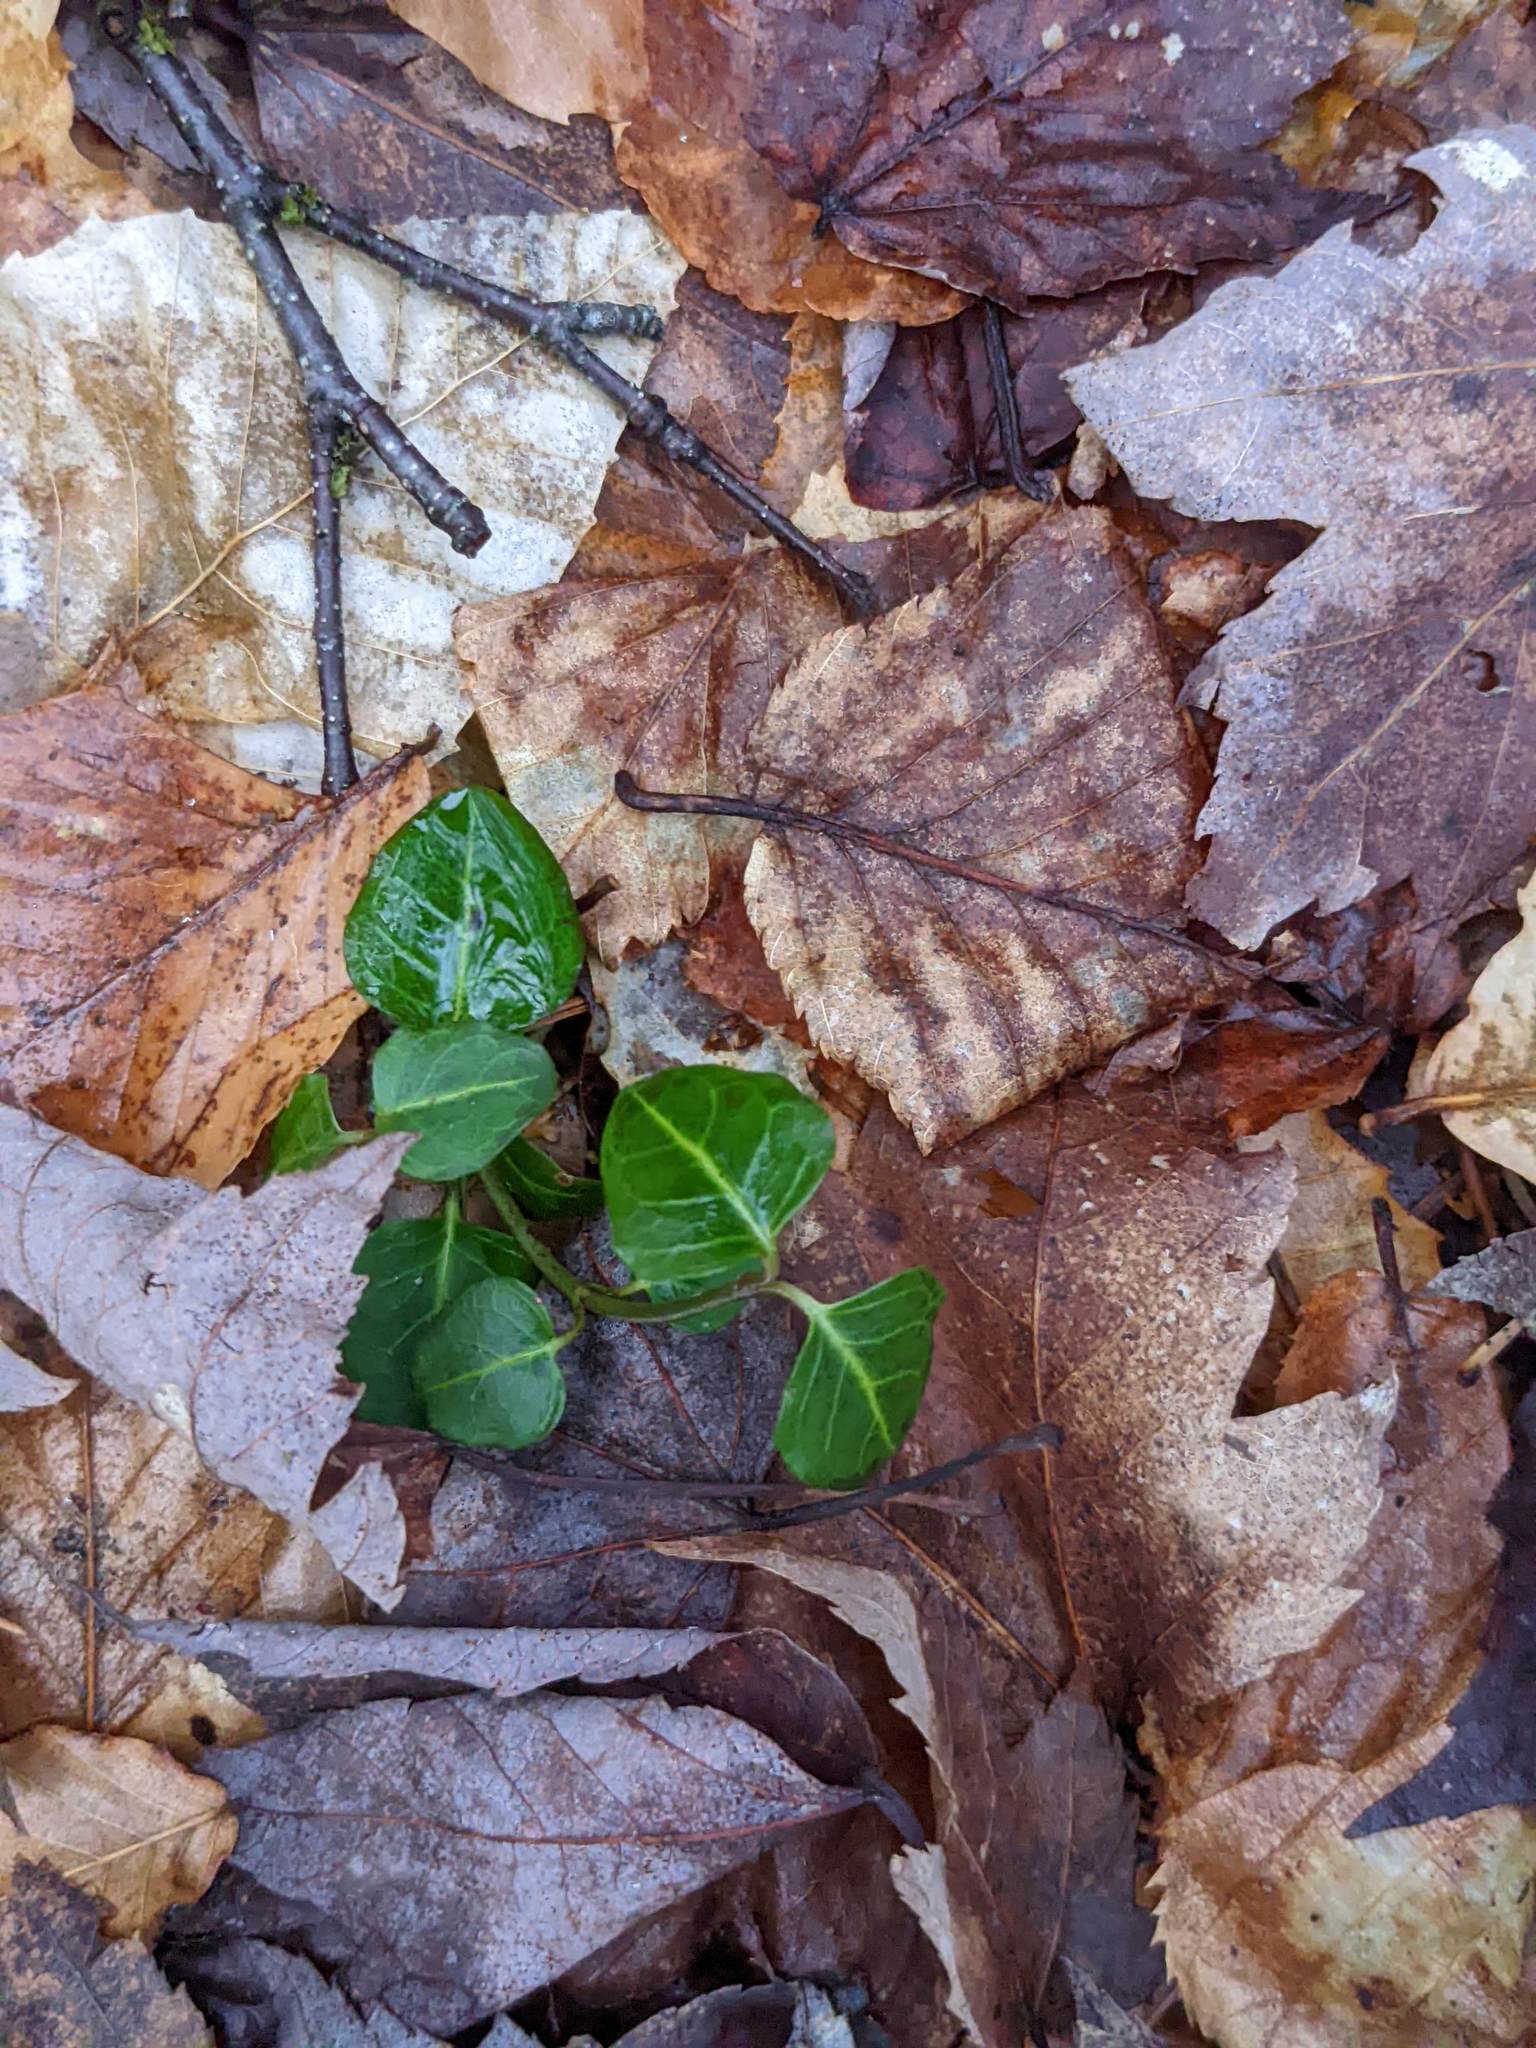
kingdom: Plantae
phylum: Tracheophyta
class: Magnoliopsida
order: Gentianales
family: Rubiaceae
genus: Mitchella
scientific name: Mitchella repens
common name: Partridge-berry
